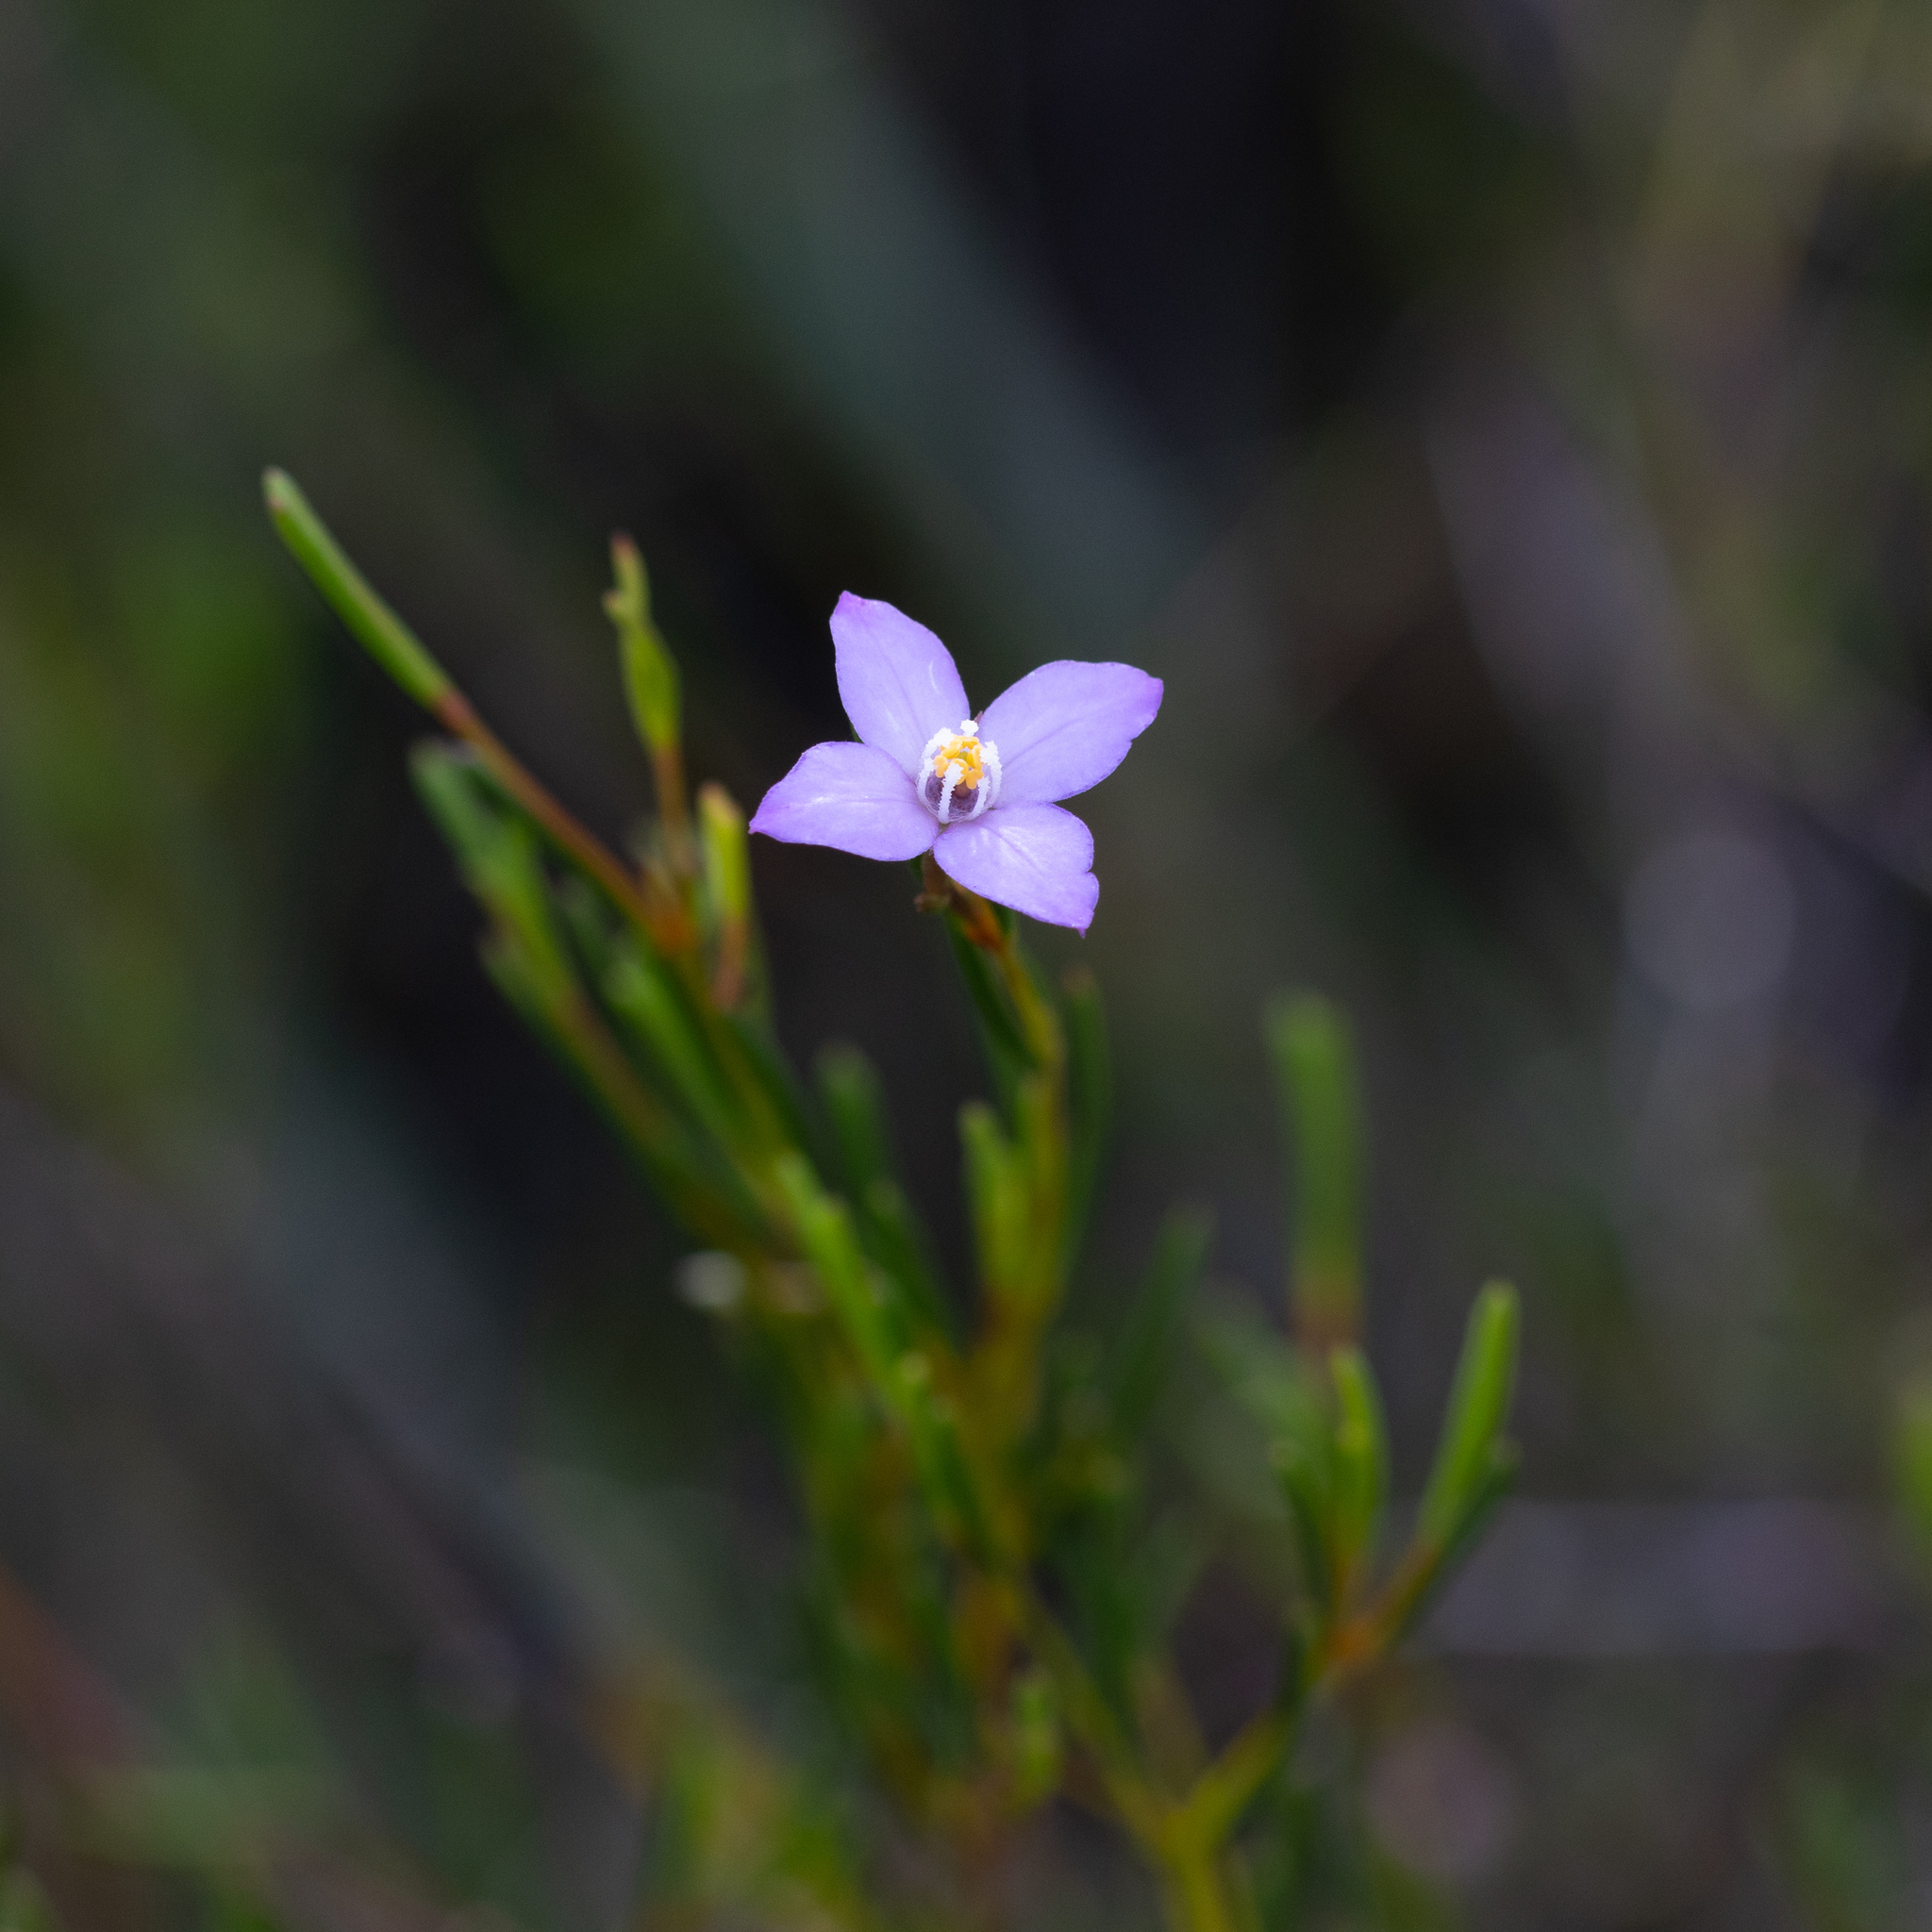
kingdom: Plantae
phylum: Tracheophyta
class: Magnoliopsida
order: Sapindales
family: Rutaceae
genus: Boronia
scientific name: Boronia filifolia
